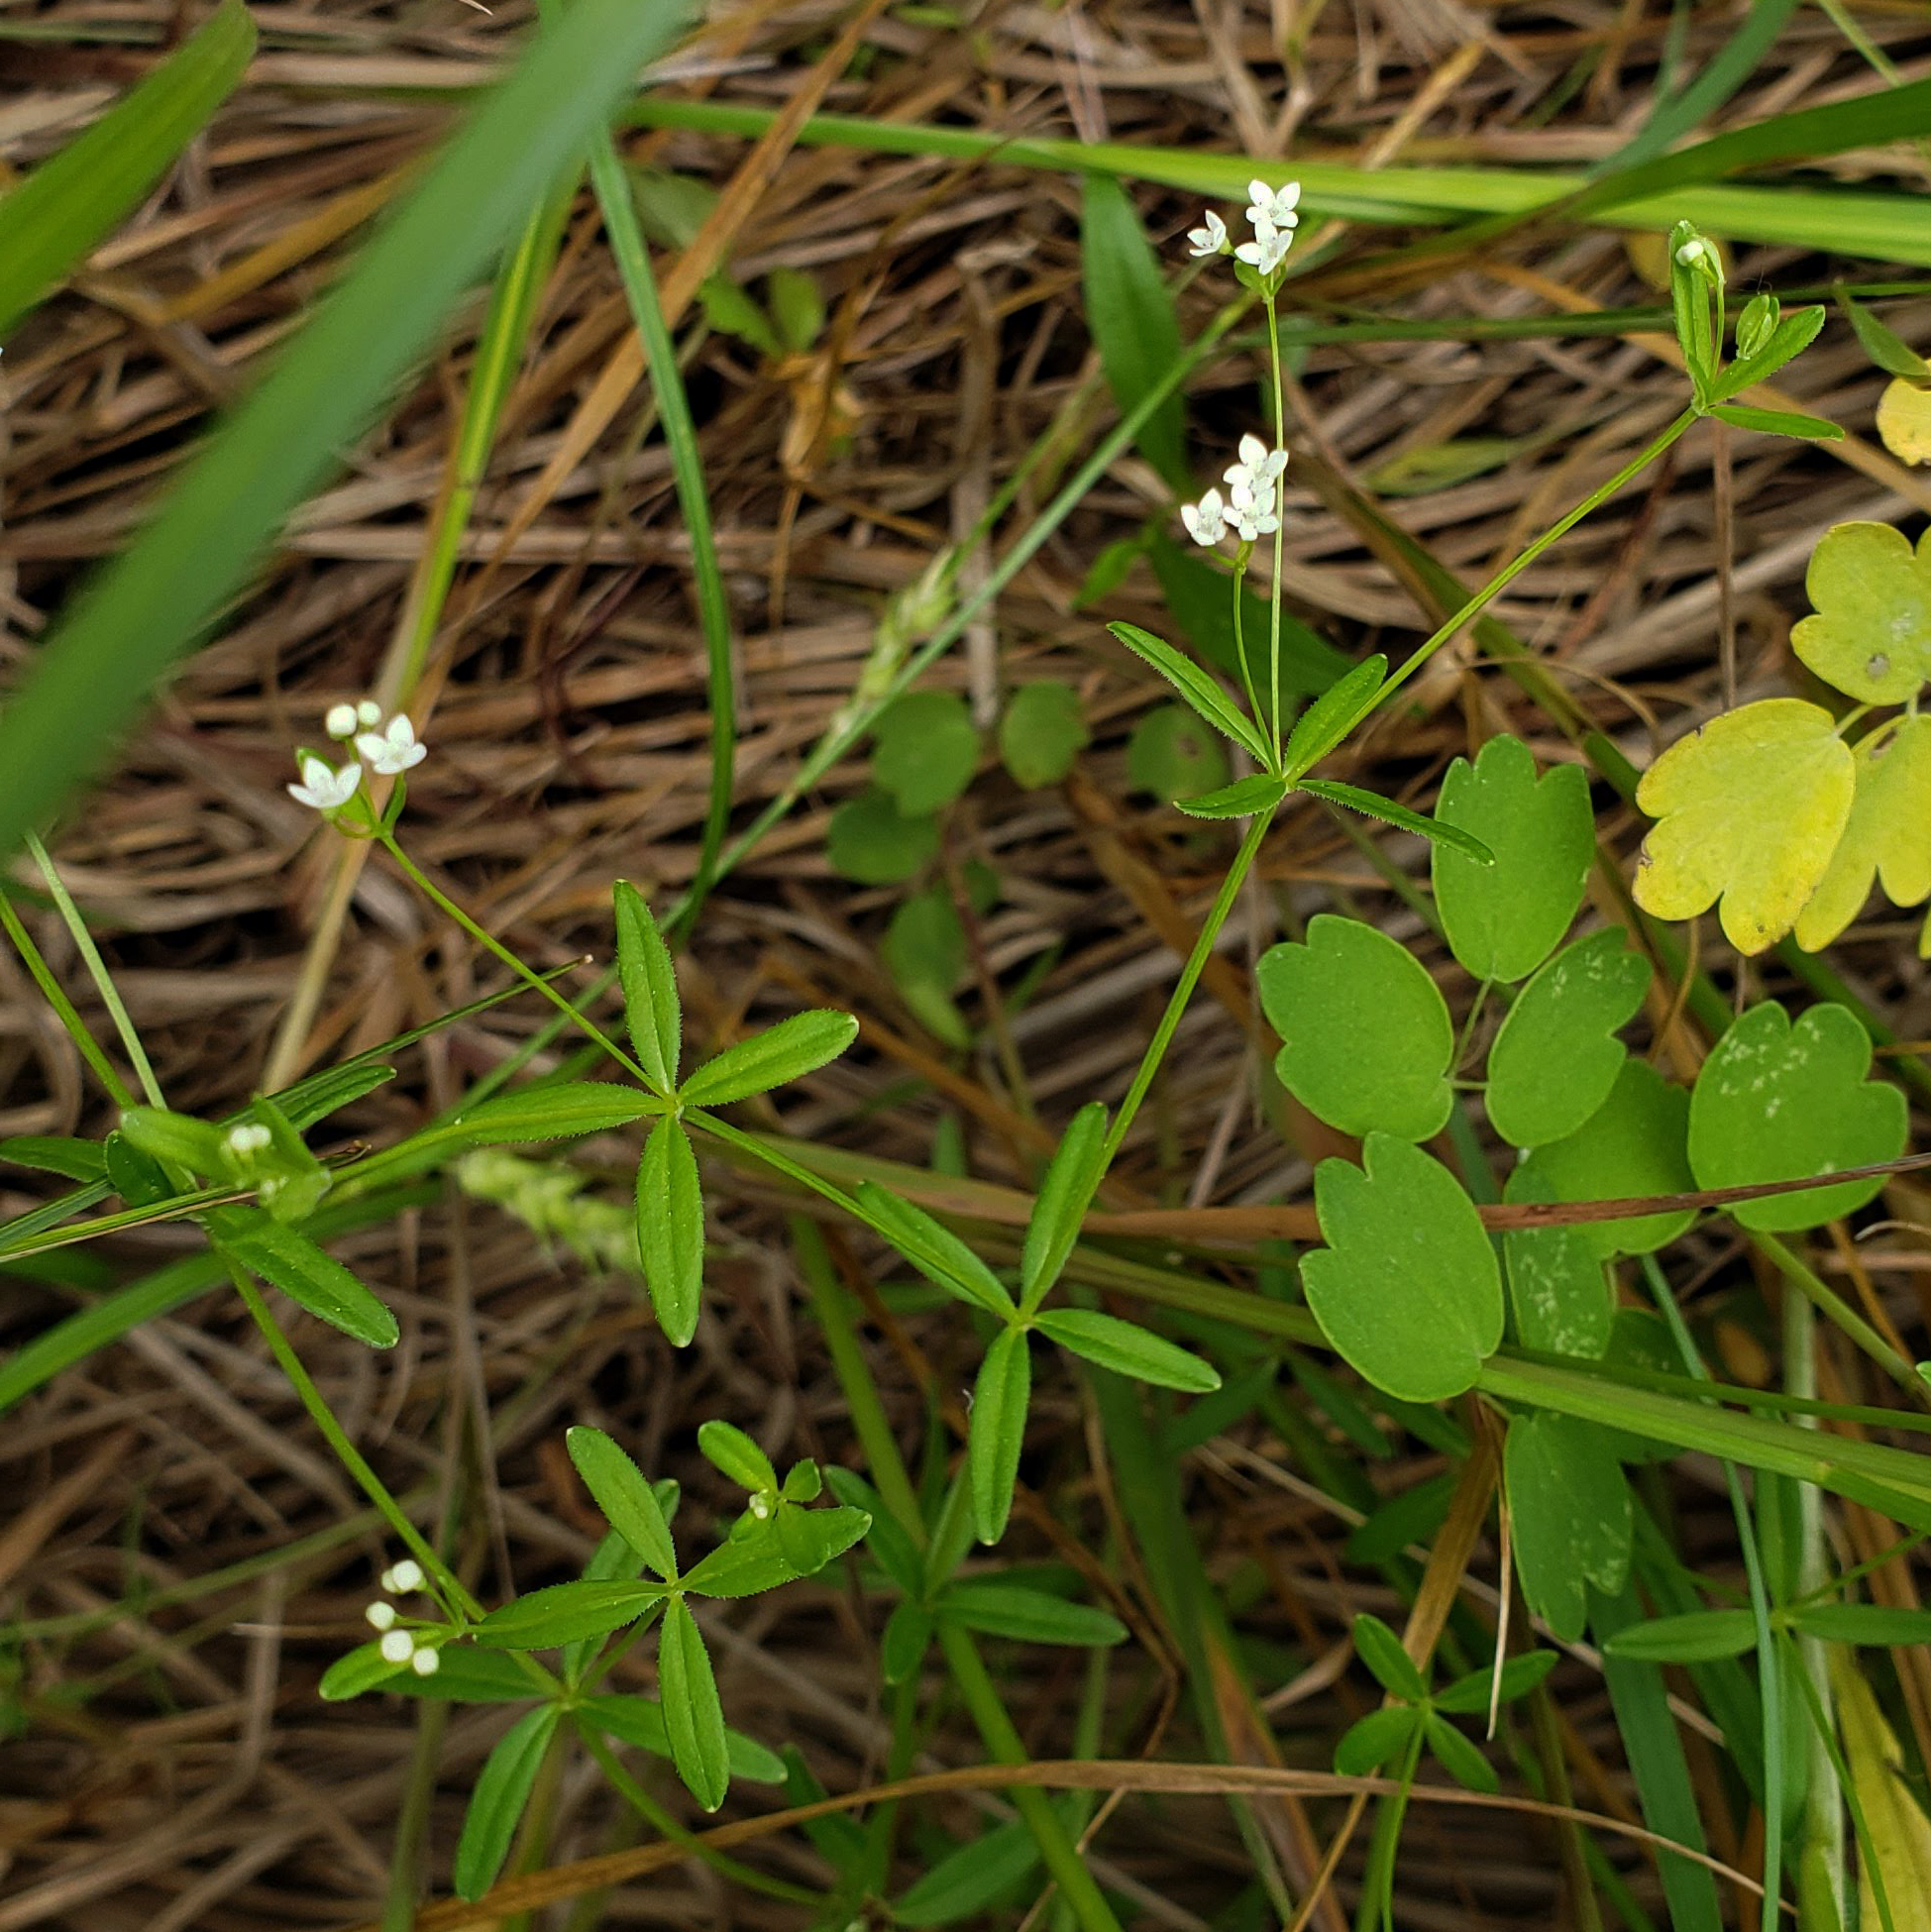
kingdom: Plantae
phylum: Tracheophyta
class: Magnoliopsida
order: Gentianales
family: Rubiaceae
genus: Galium
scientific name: Galium obtusum
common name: Blunt-leaved bedstraw
